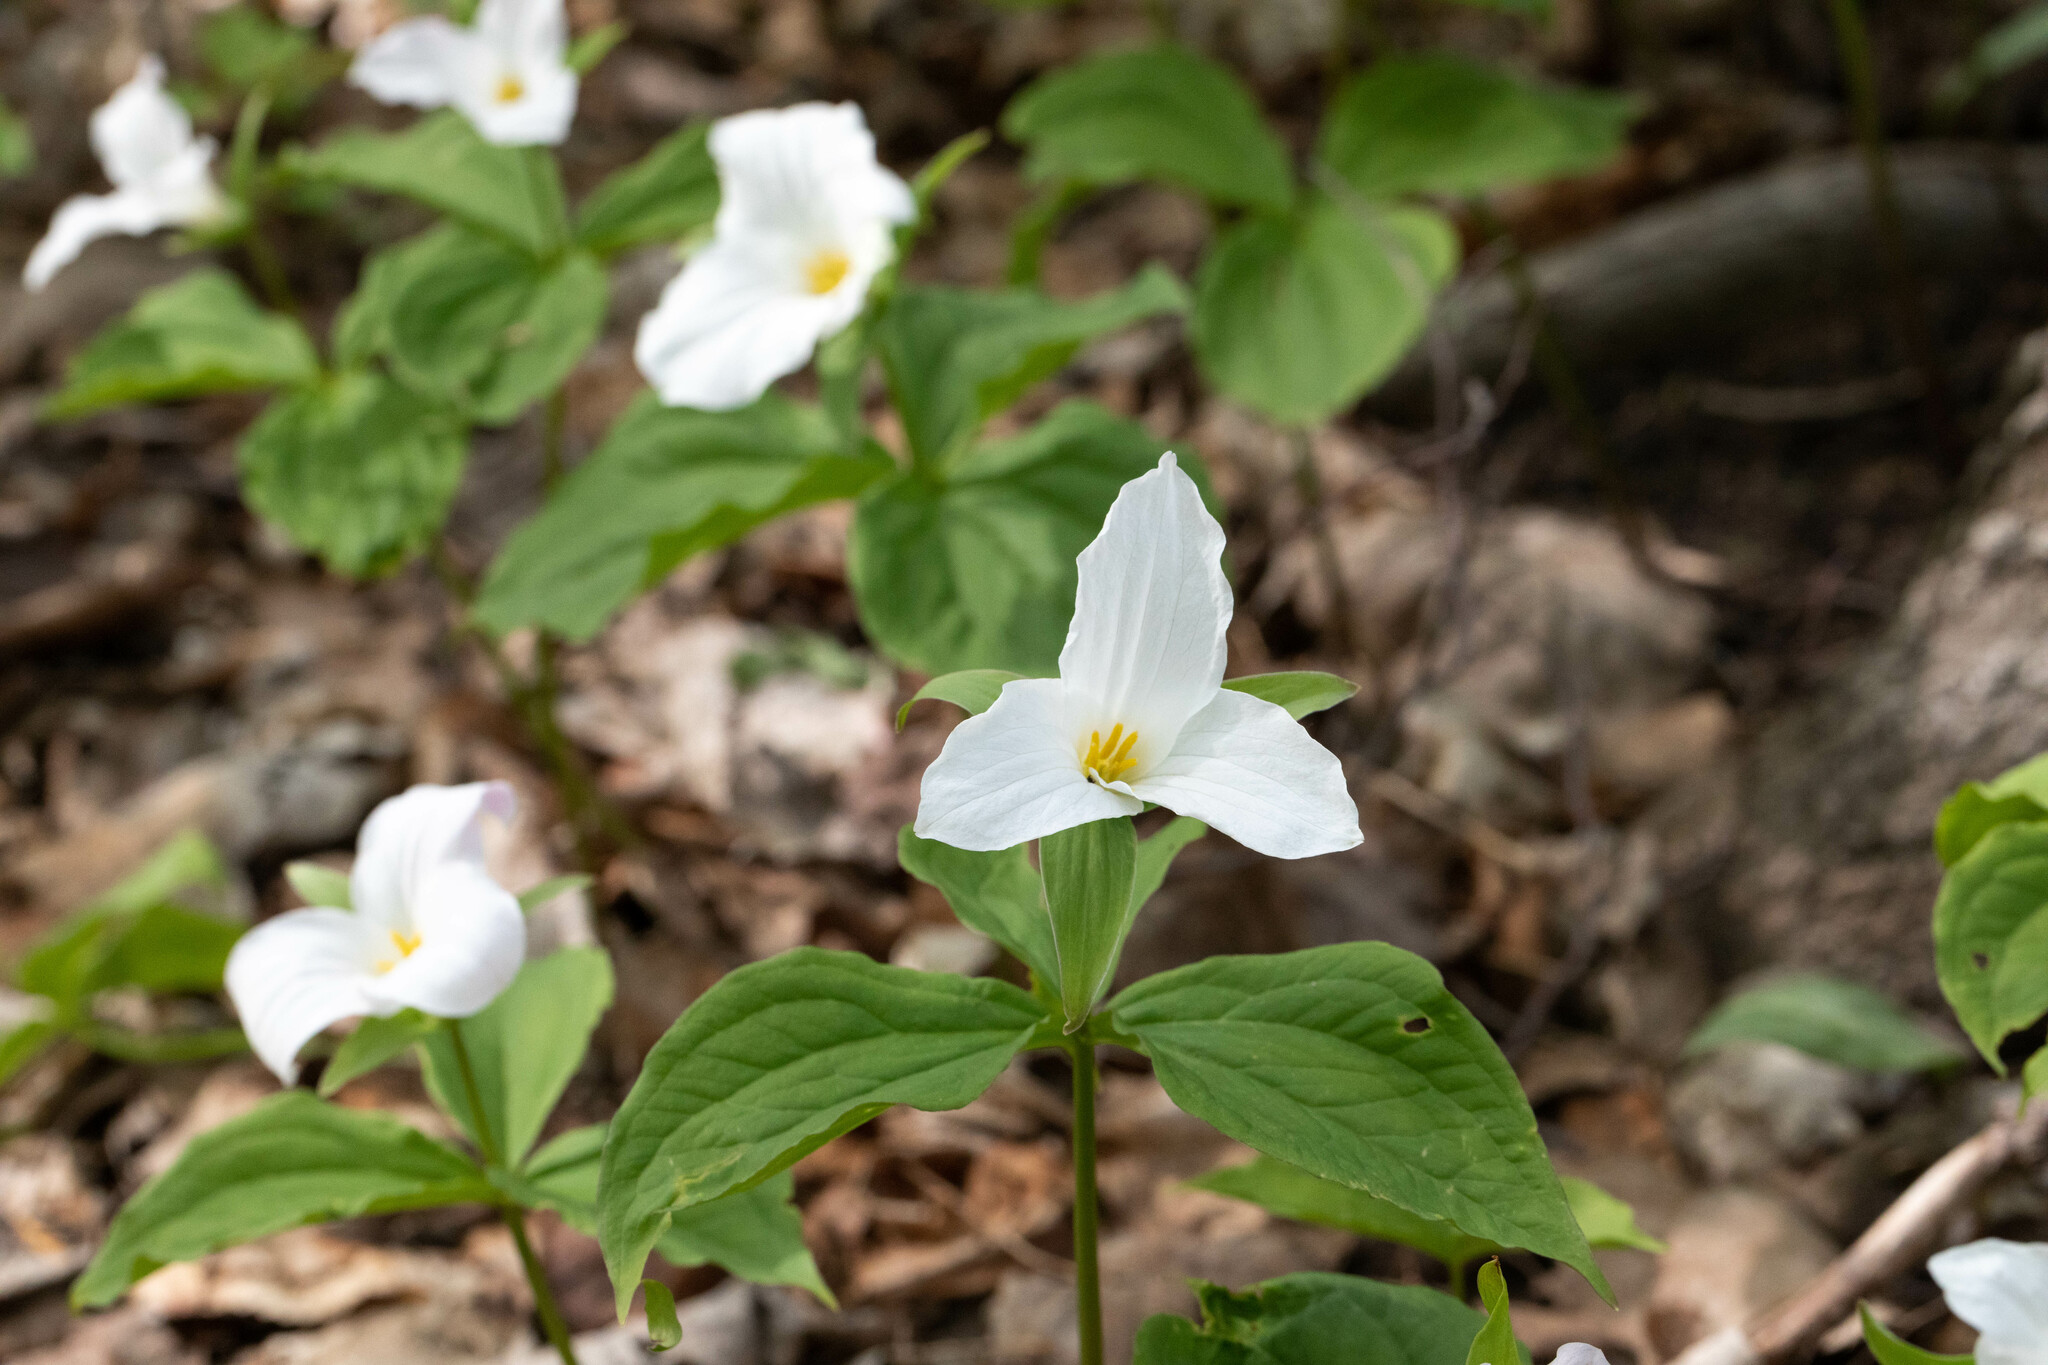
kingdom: Plantae
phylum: Tracheophyta
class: Liliopsida
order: Liliales
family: Melanthiaceae
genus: Trillium
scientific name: Trillium grandiflorum
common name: Great white trillium
